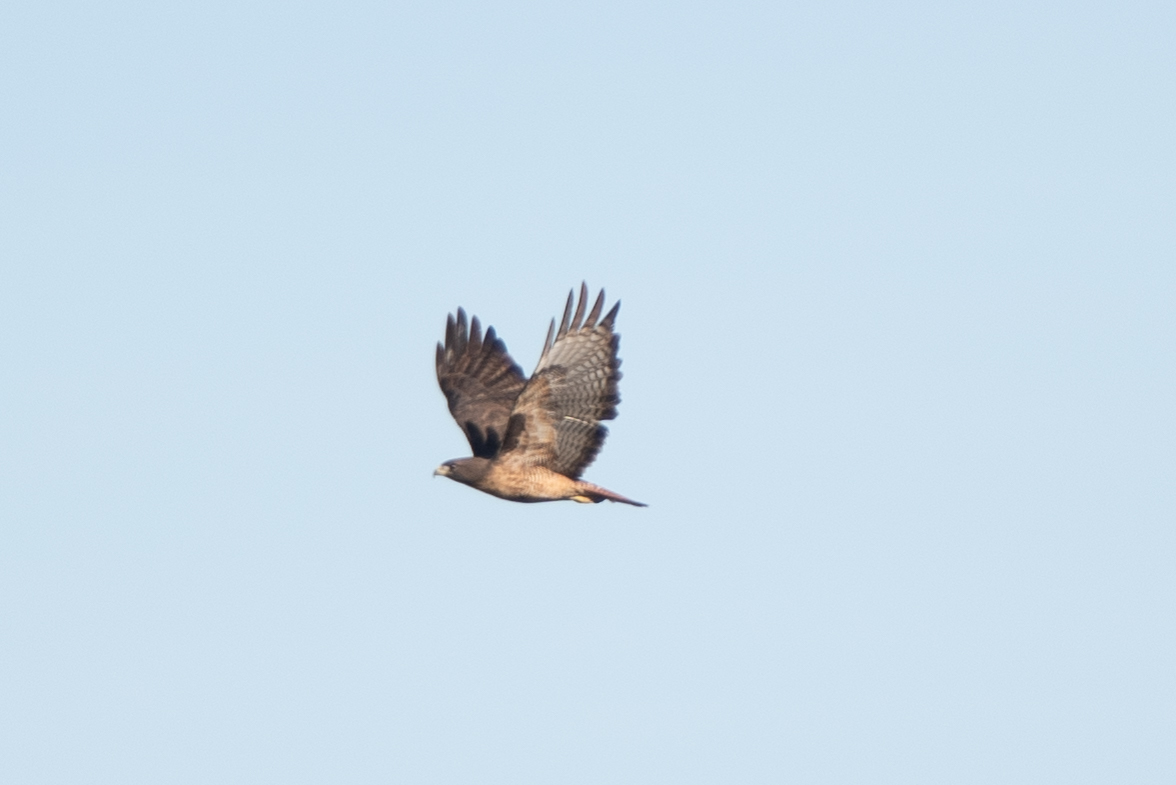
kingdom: Animalia
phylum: Chordata
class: Aves
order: Accipitriformes
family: Accipitridae
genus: Buteo
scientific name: Buteo jamaicensis
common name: Red-tailed hawk
